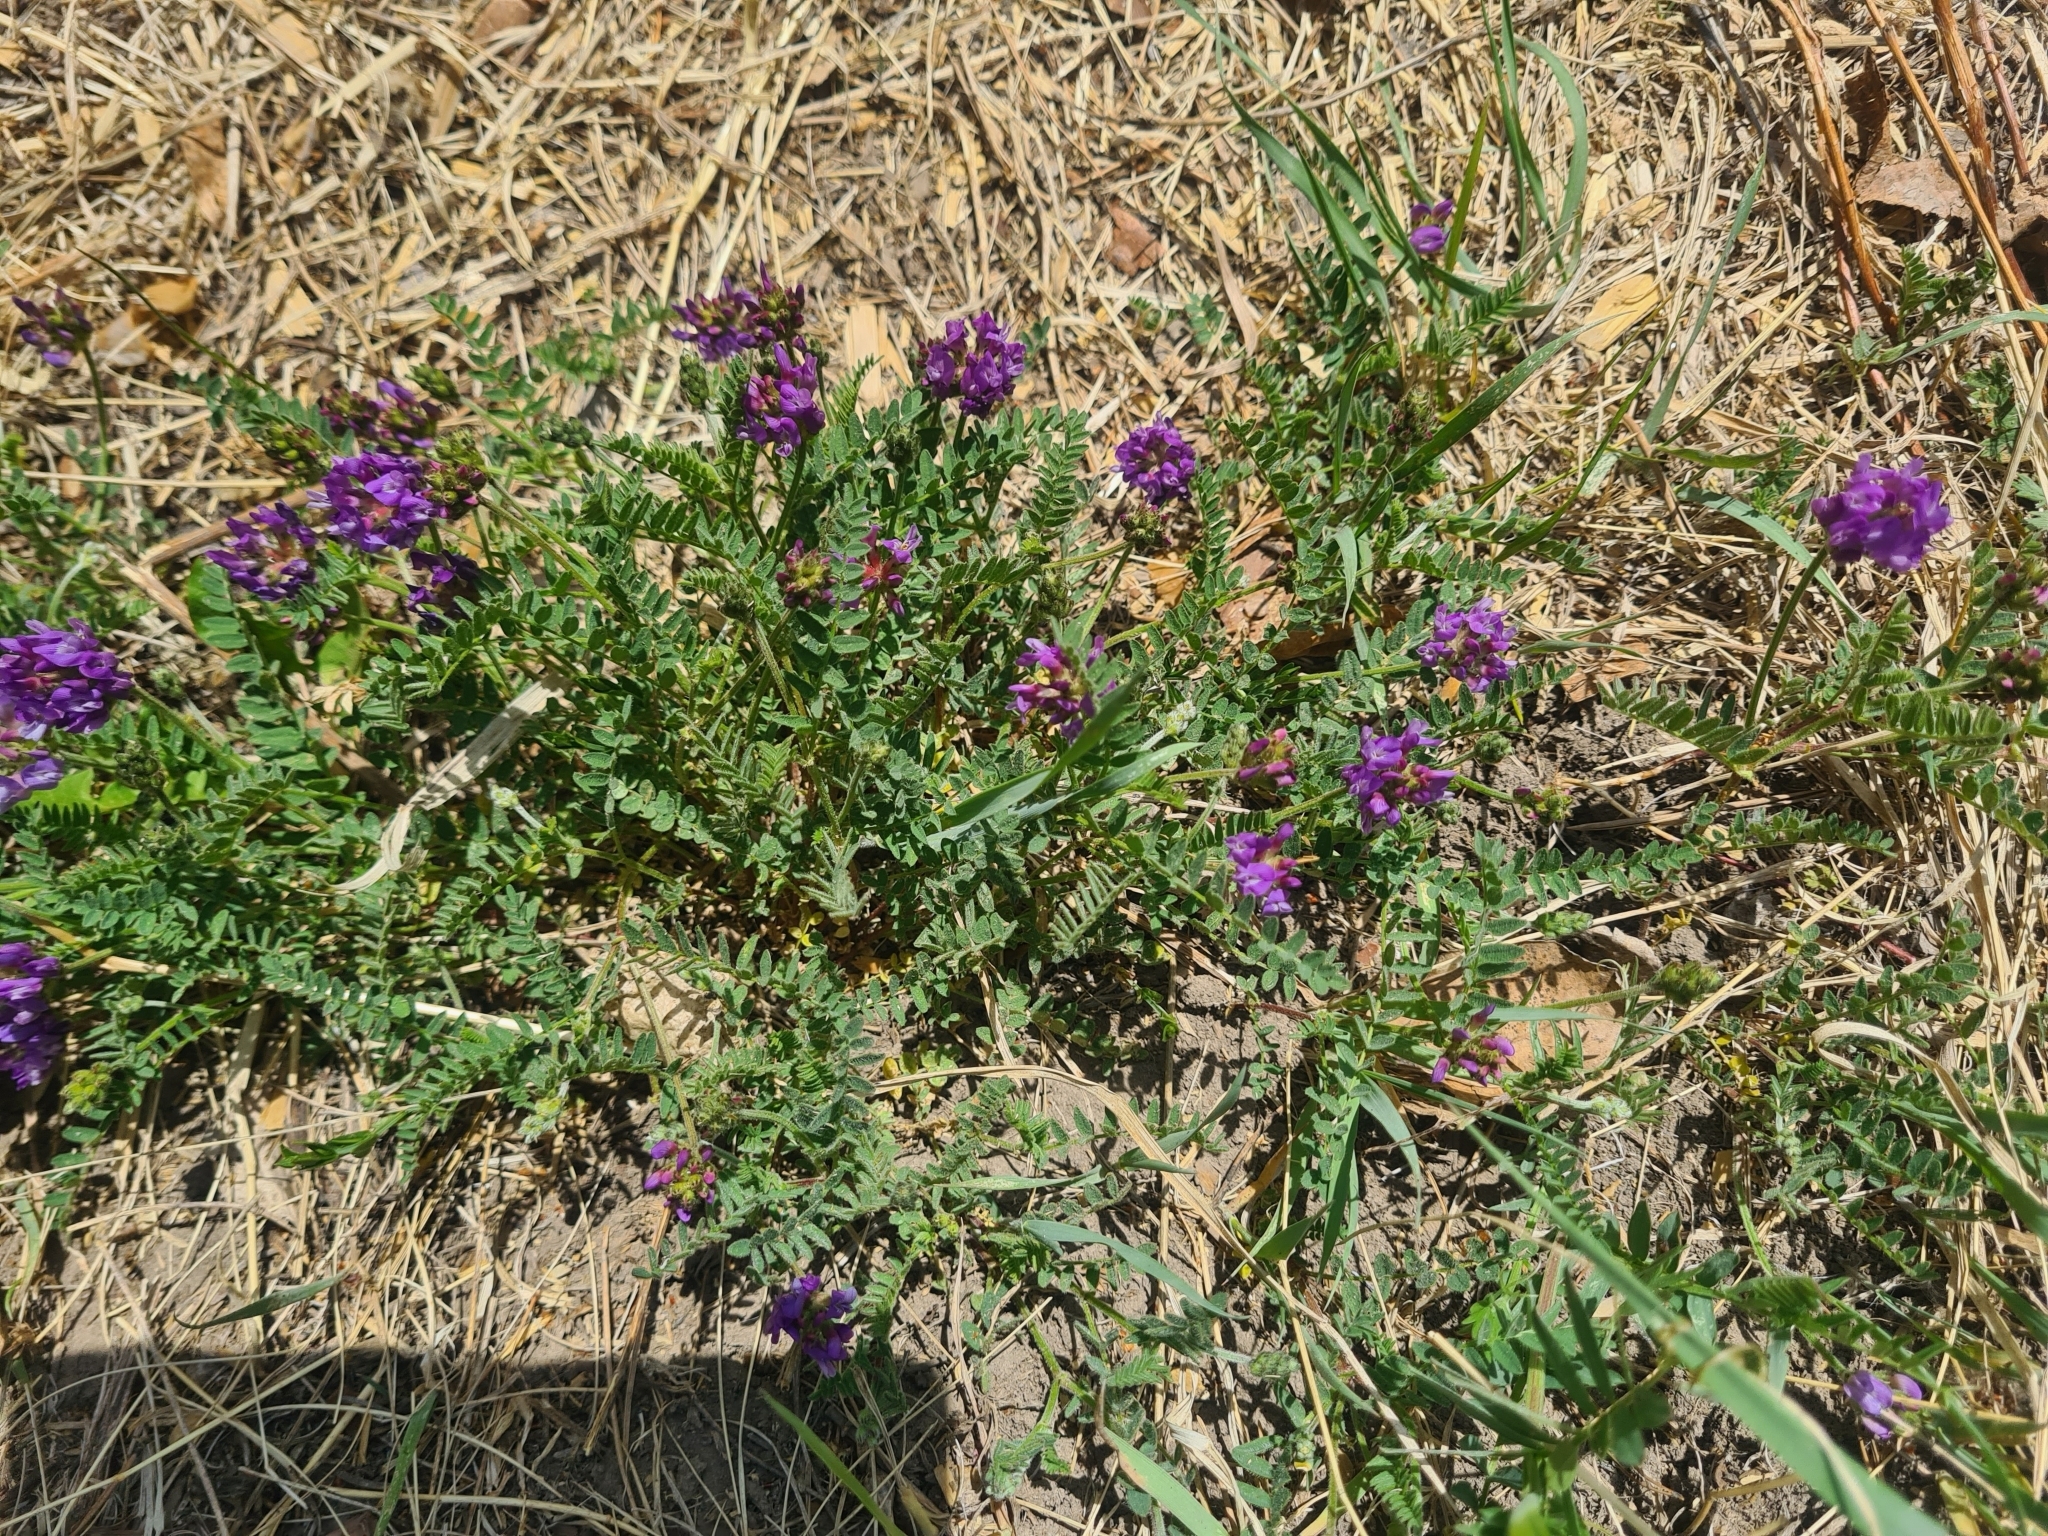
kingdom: Plantae
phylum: Tracheophyta
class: Magnoliopsida
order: Fabales
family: Fabaceae
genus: Astragalus
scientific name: Astragalus danicus
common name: Purple milk-vetch
